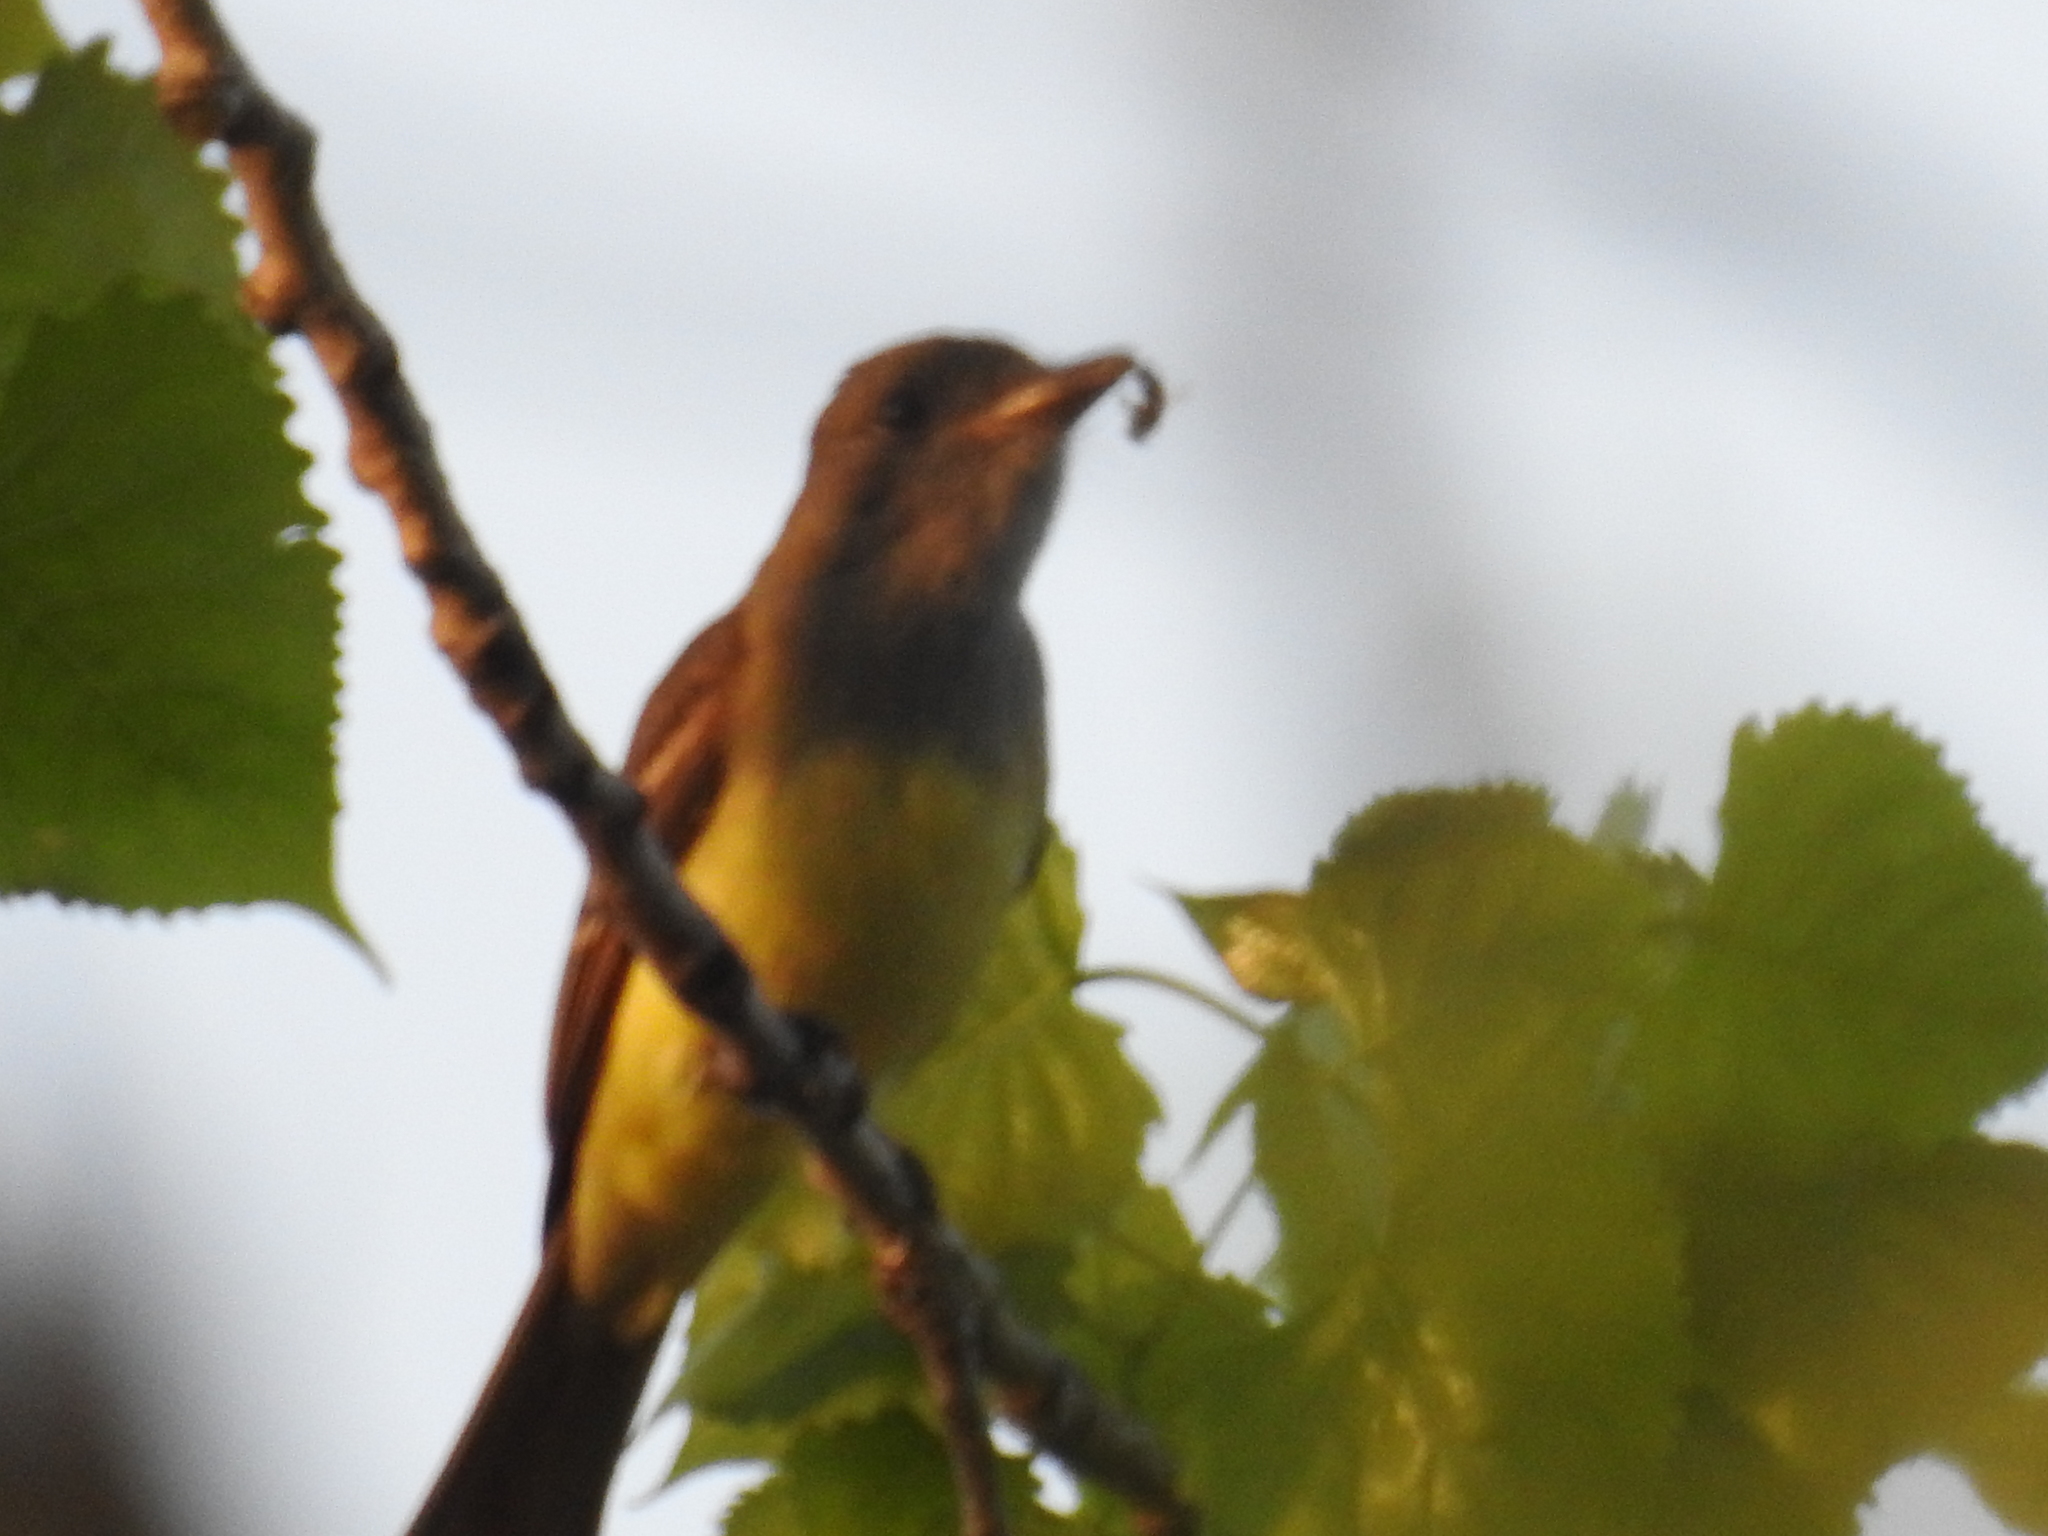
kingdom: Animalia
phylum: Chordata
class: Aves
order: Passeriformes
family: Tyrannidae
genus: Myiarchus
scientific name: Myiarchus crinitus
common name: Great crested flycatcher
